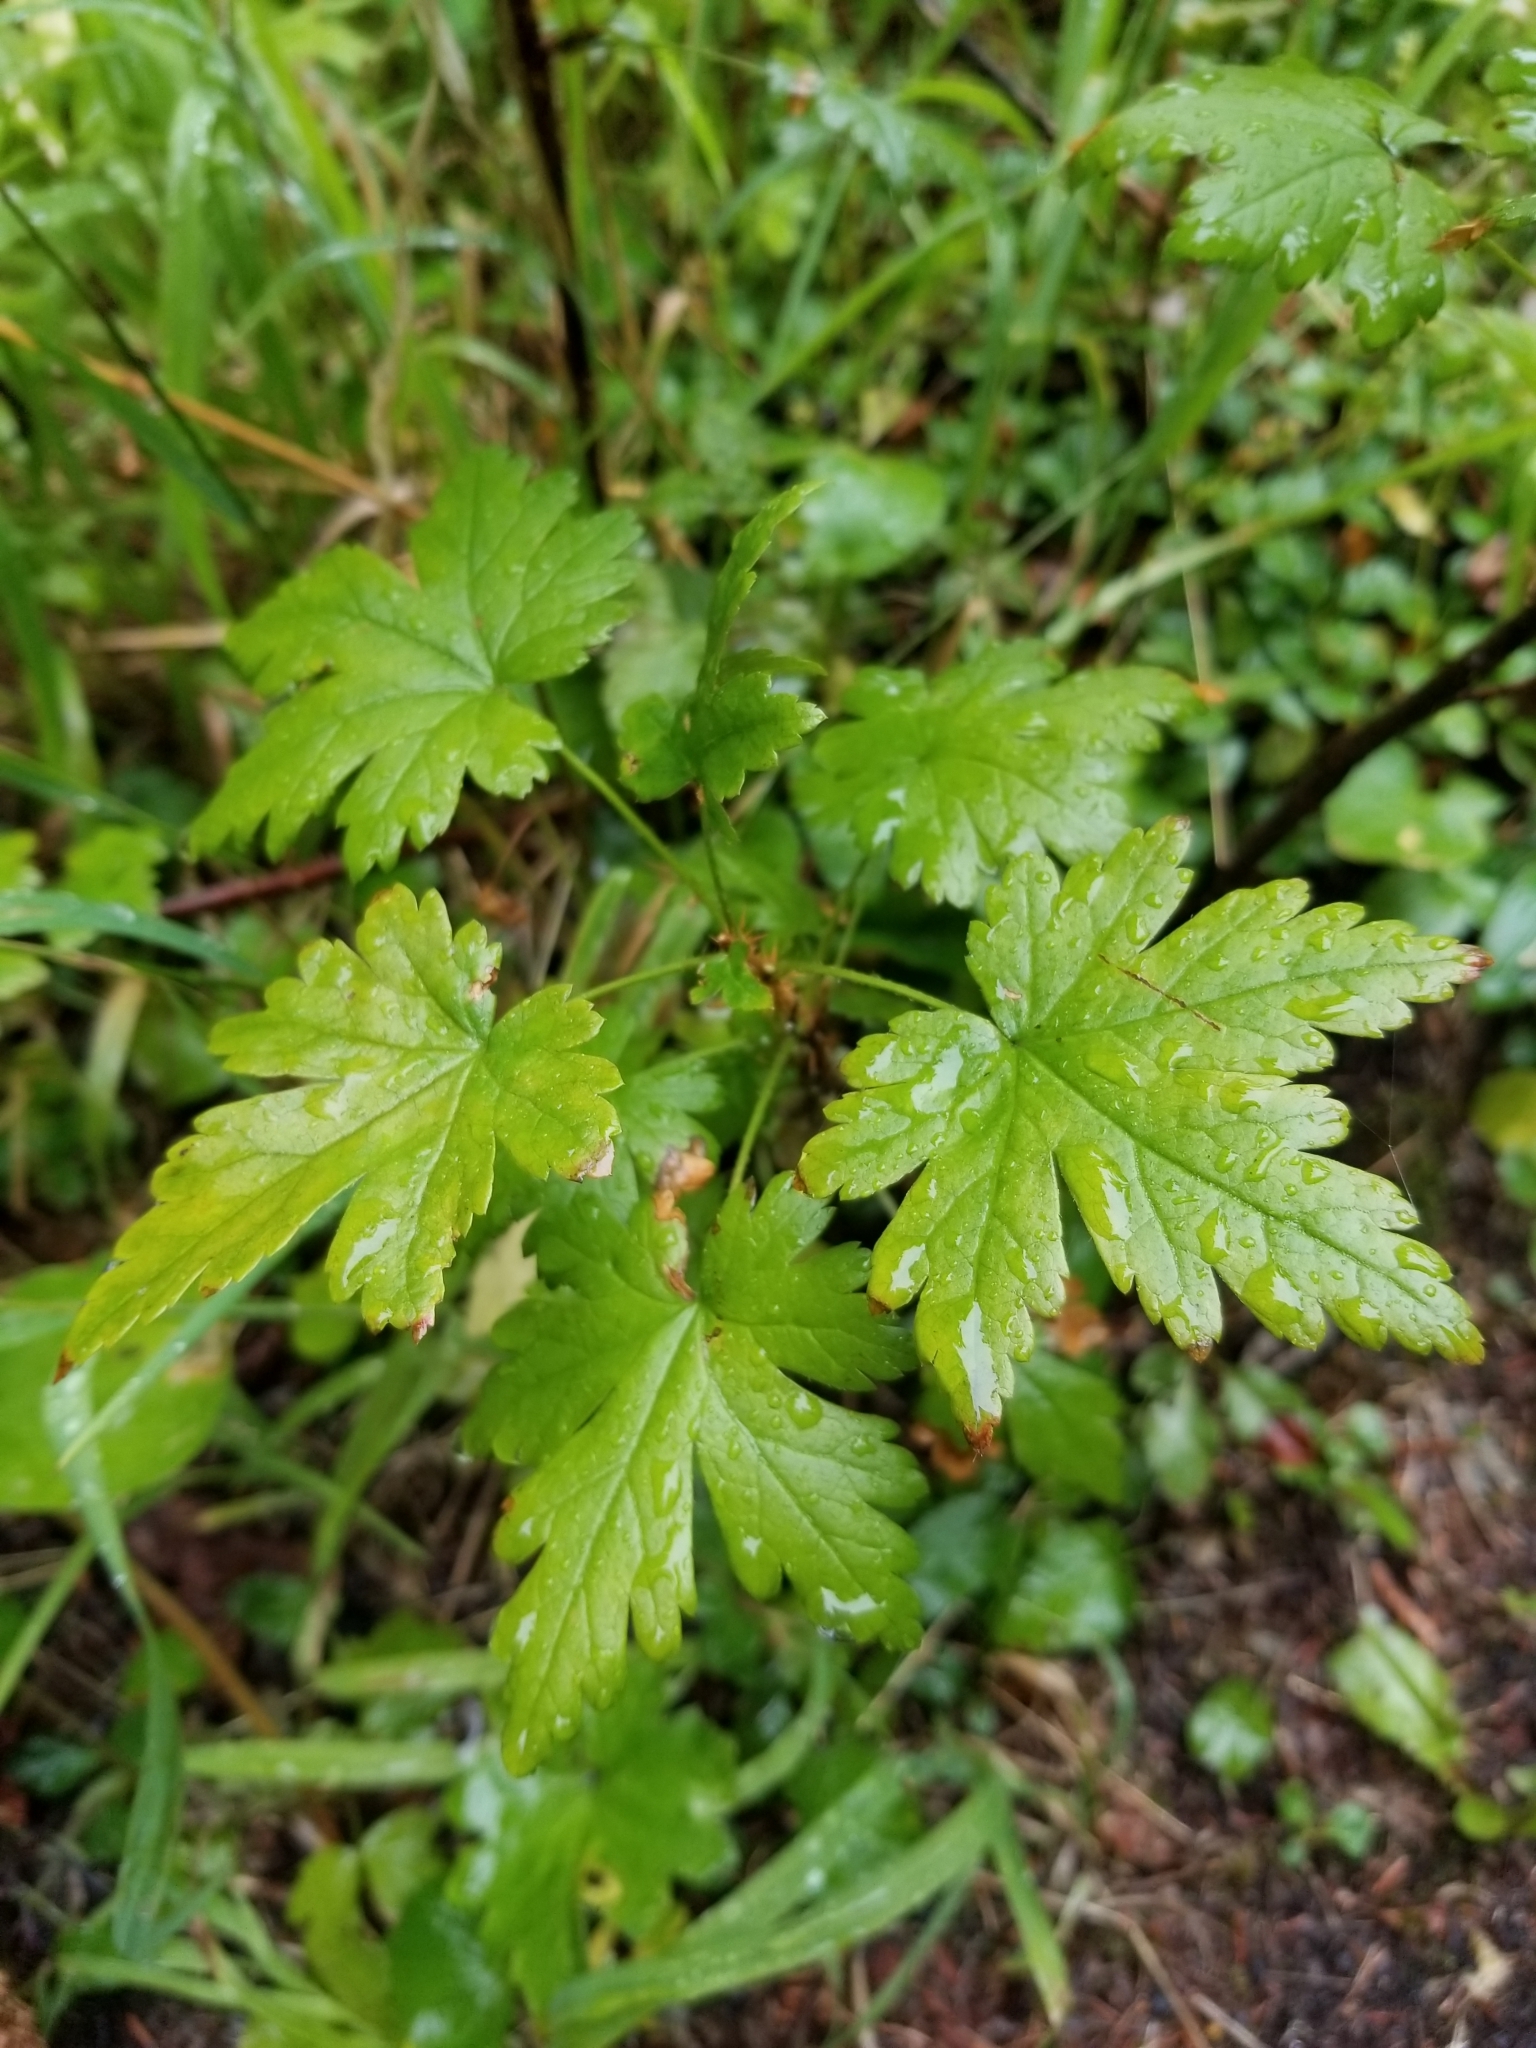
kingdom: Plantae
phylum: Tracheophyta
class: Magnoliopsida
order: Saxifragales
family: Grossulariaceae
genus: Ribes
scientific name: Ribes lacustre
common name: Black gooseberry
